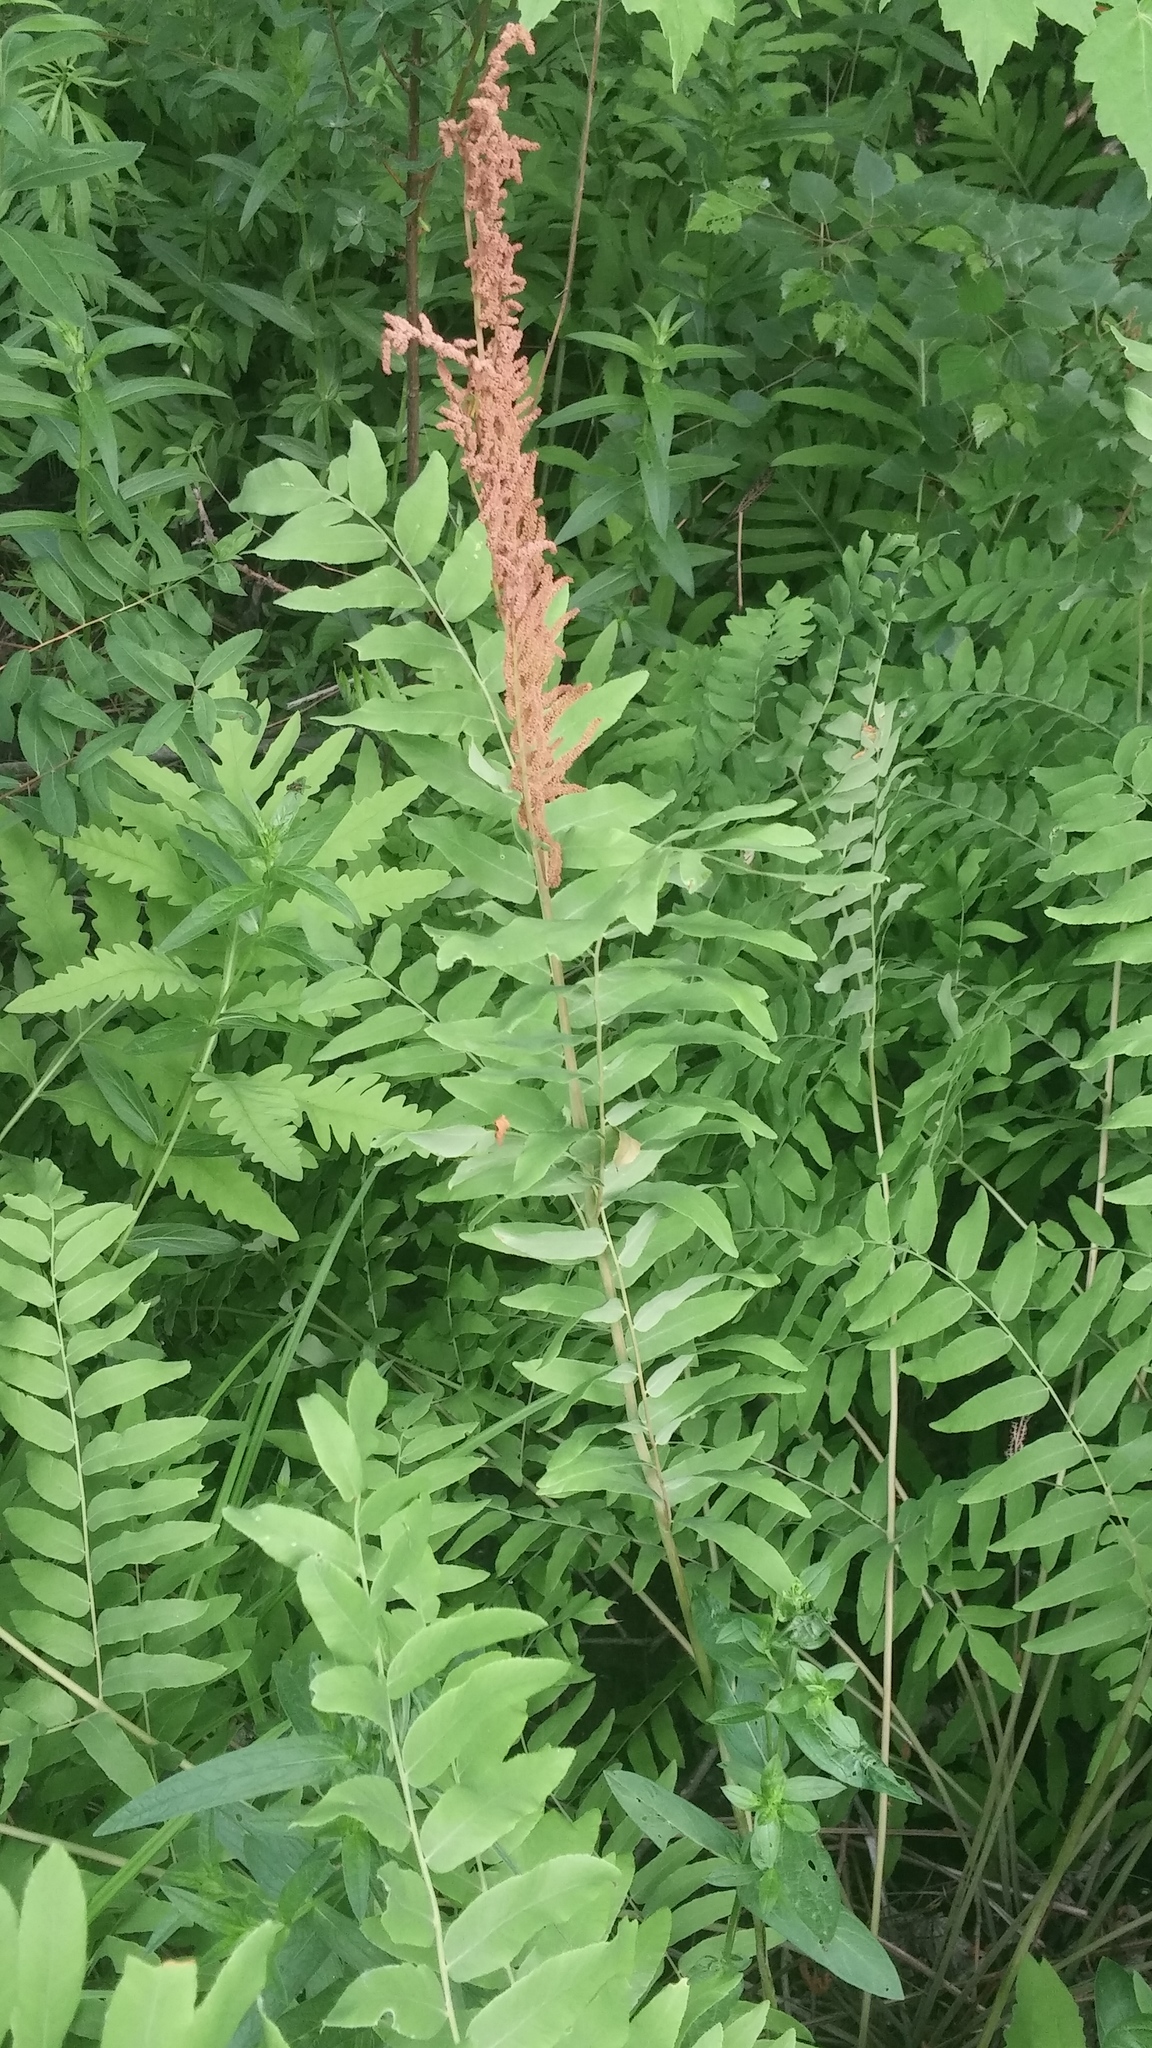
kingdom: Plantae
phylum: Tracheophyta
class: Polypodiopsida
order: Osmundales
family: Osmundaceae
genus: Osmunda
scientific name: Osmunda spectabilis
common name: American royal fern
